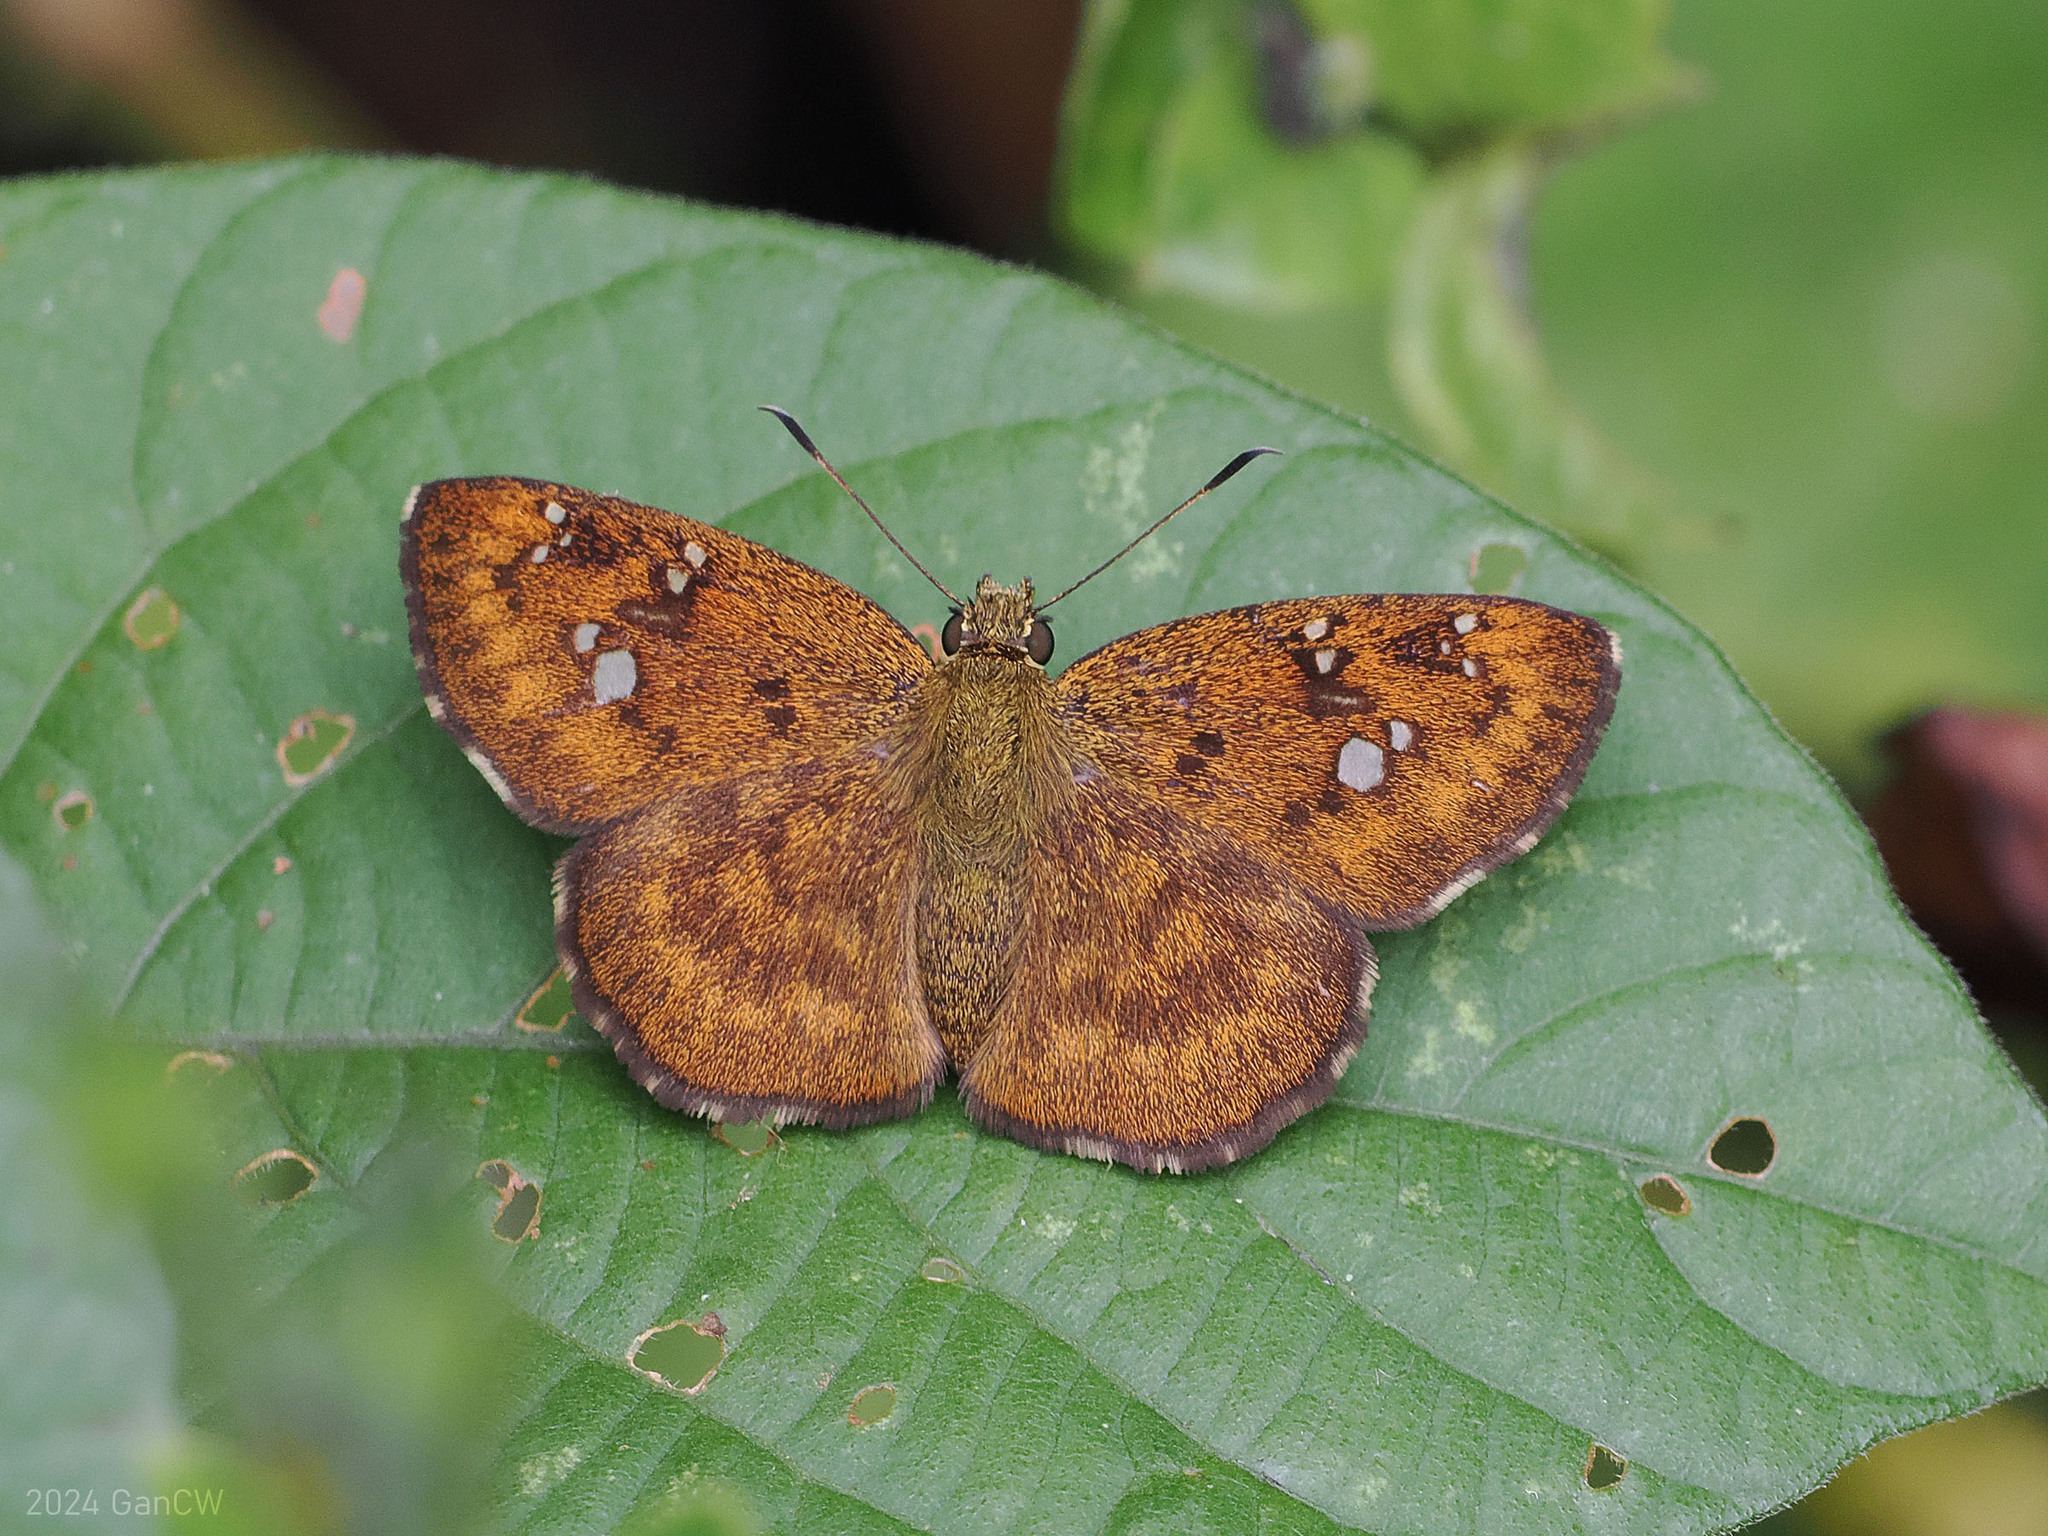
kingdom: Animalia
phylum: Arthropoda
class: Insecta
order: Lepidoptera
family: Hesperiidae
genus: Pseudocoladenia
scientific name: Pseudocoladenia
